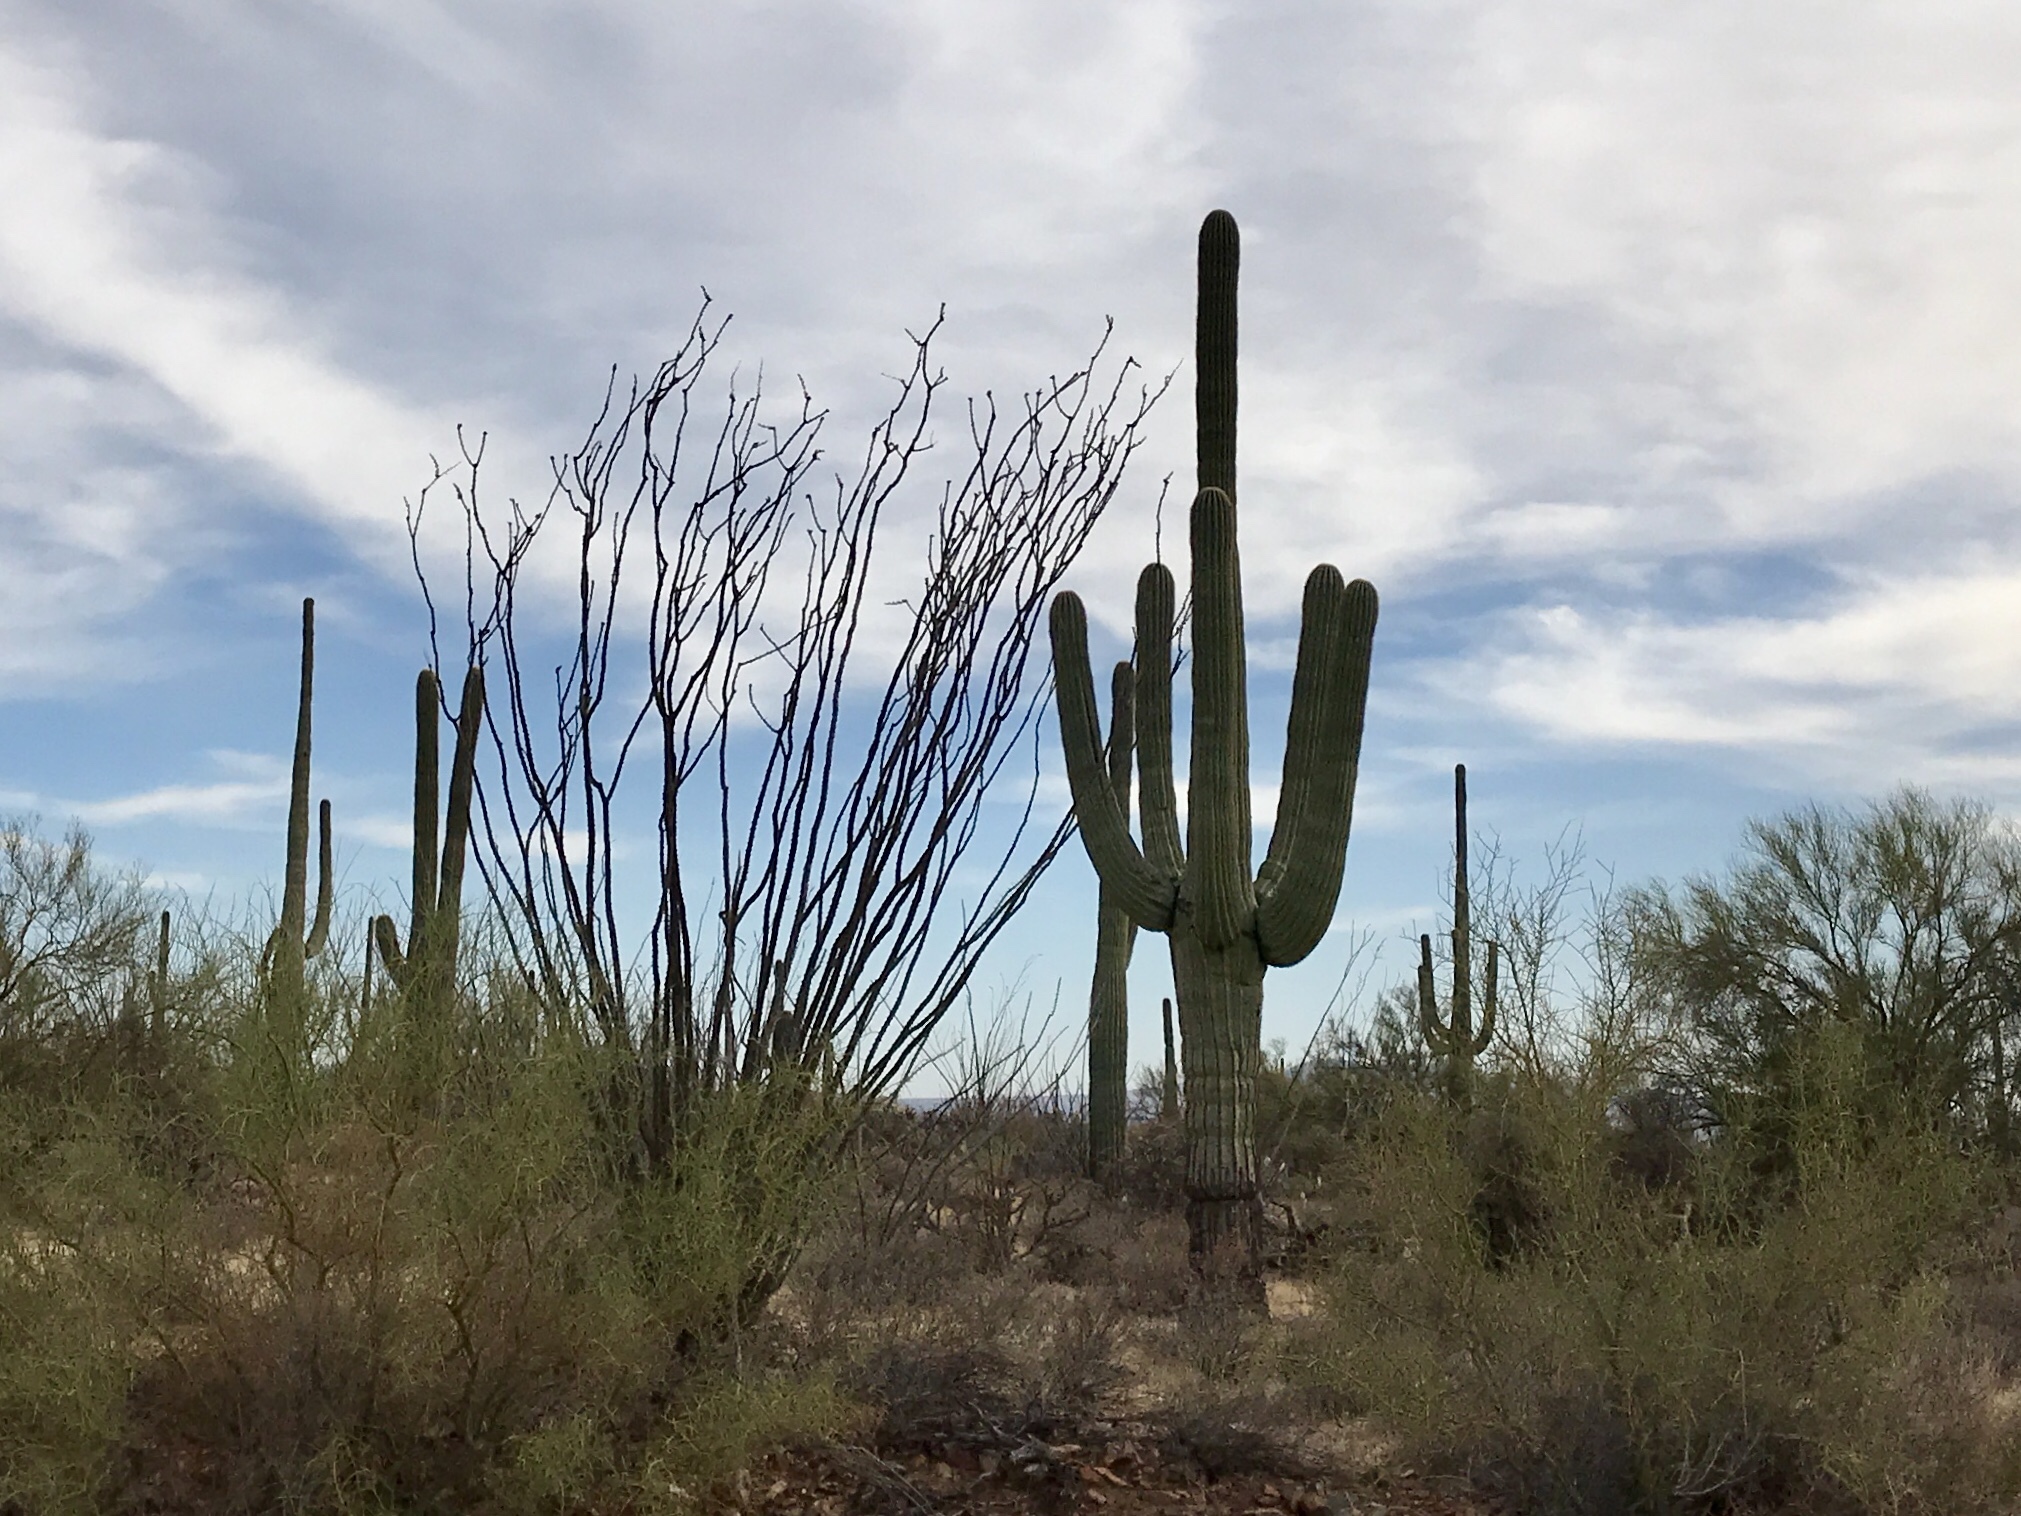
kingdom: Plantae
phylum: Tracheophyta
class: Magnoliopsida
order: Caryophyllales
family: Cactaceae
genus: Carnegiea
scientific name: Carnegiea gigantea
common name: Saguaro
